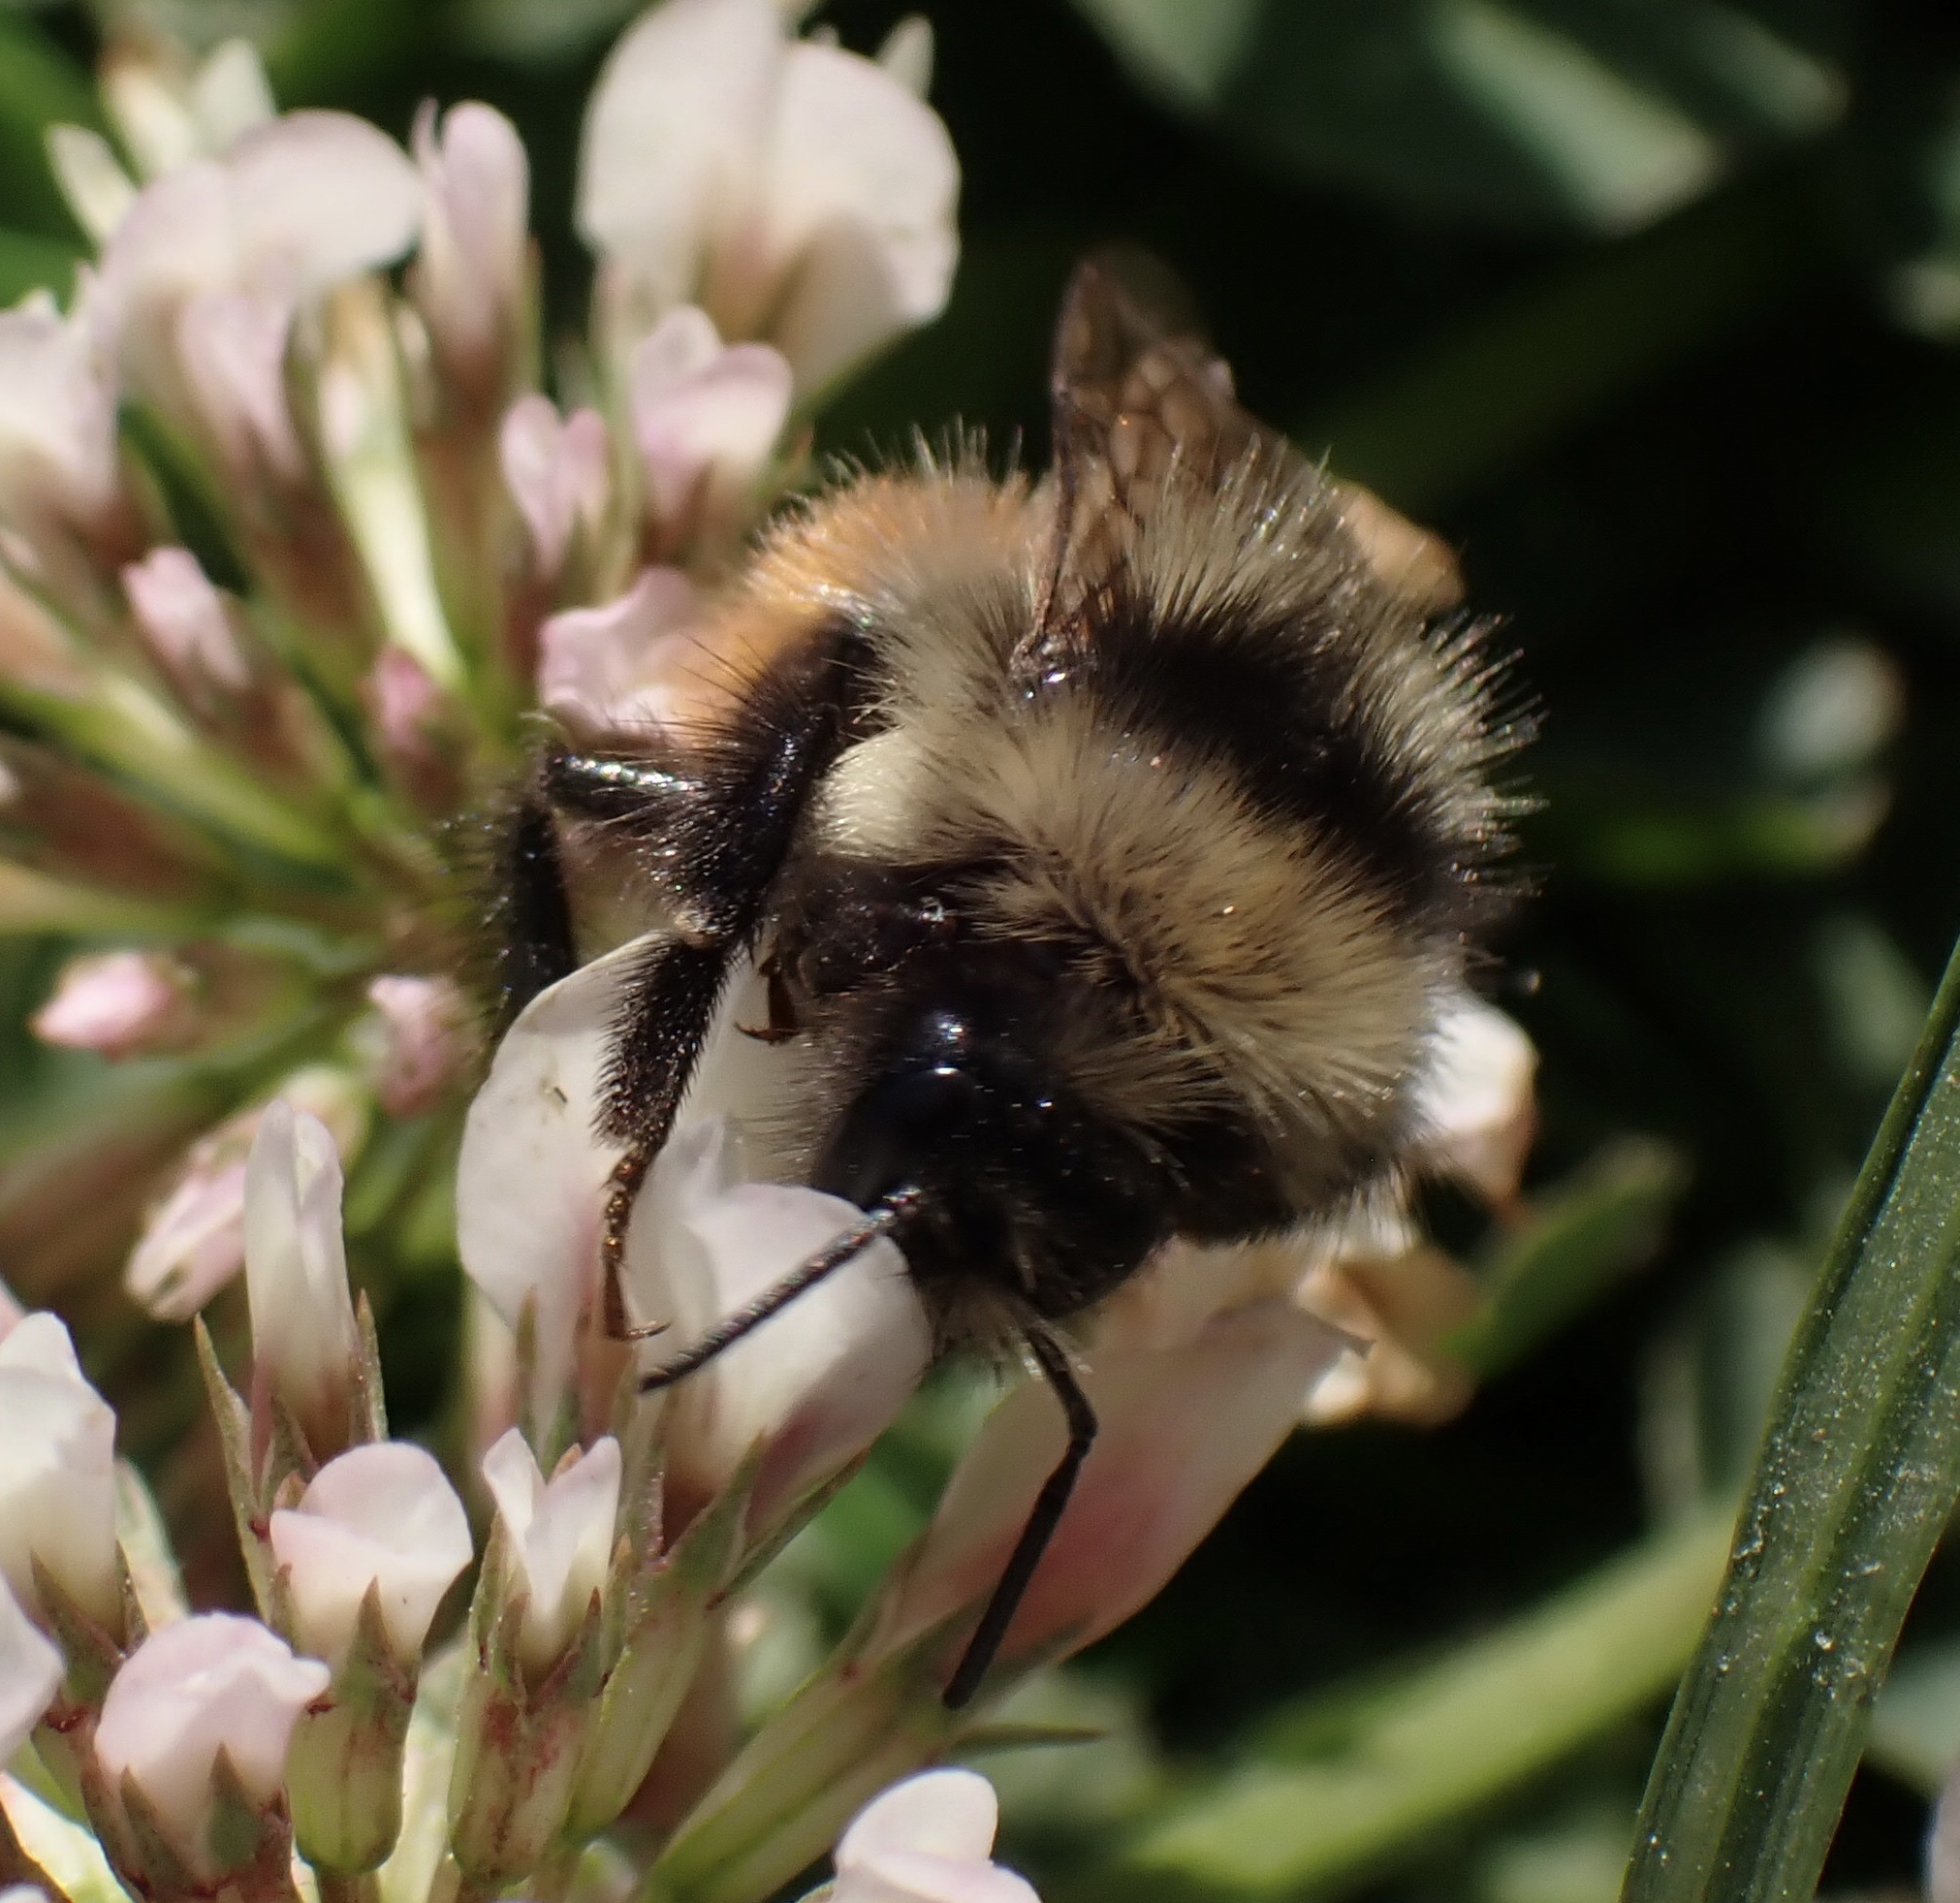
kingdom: Animalia
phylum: Arthropoda
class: Insecta
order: Hymenoptera
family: Apidae
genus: Bombus
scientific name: Bombus monticola
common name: Bilberry humble-bee
